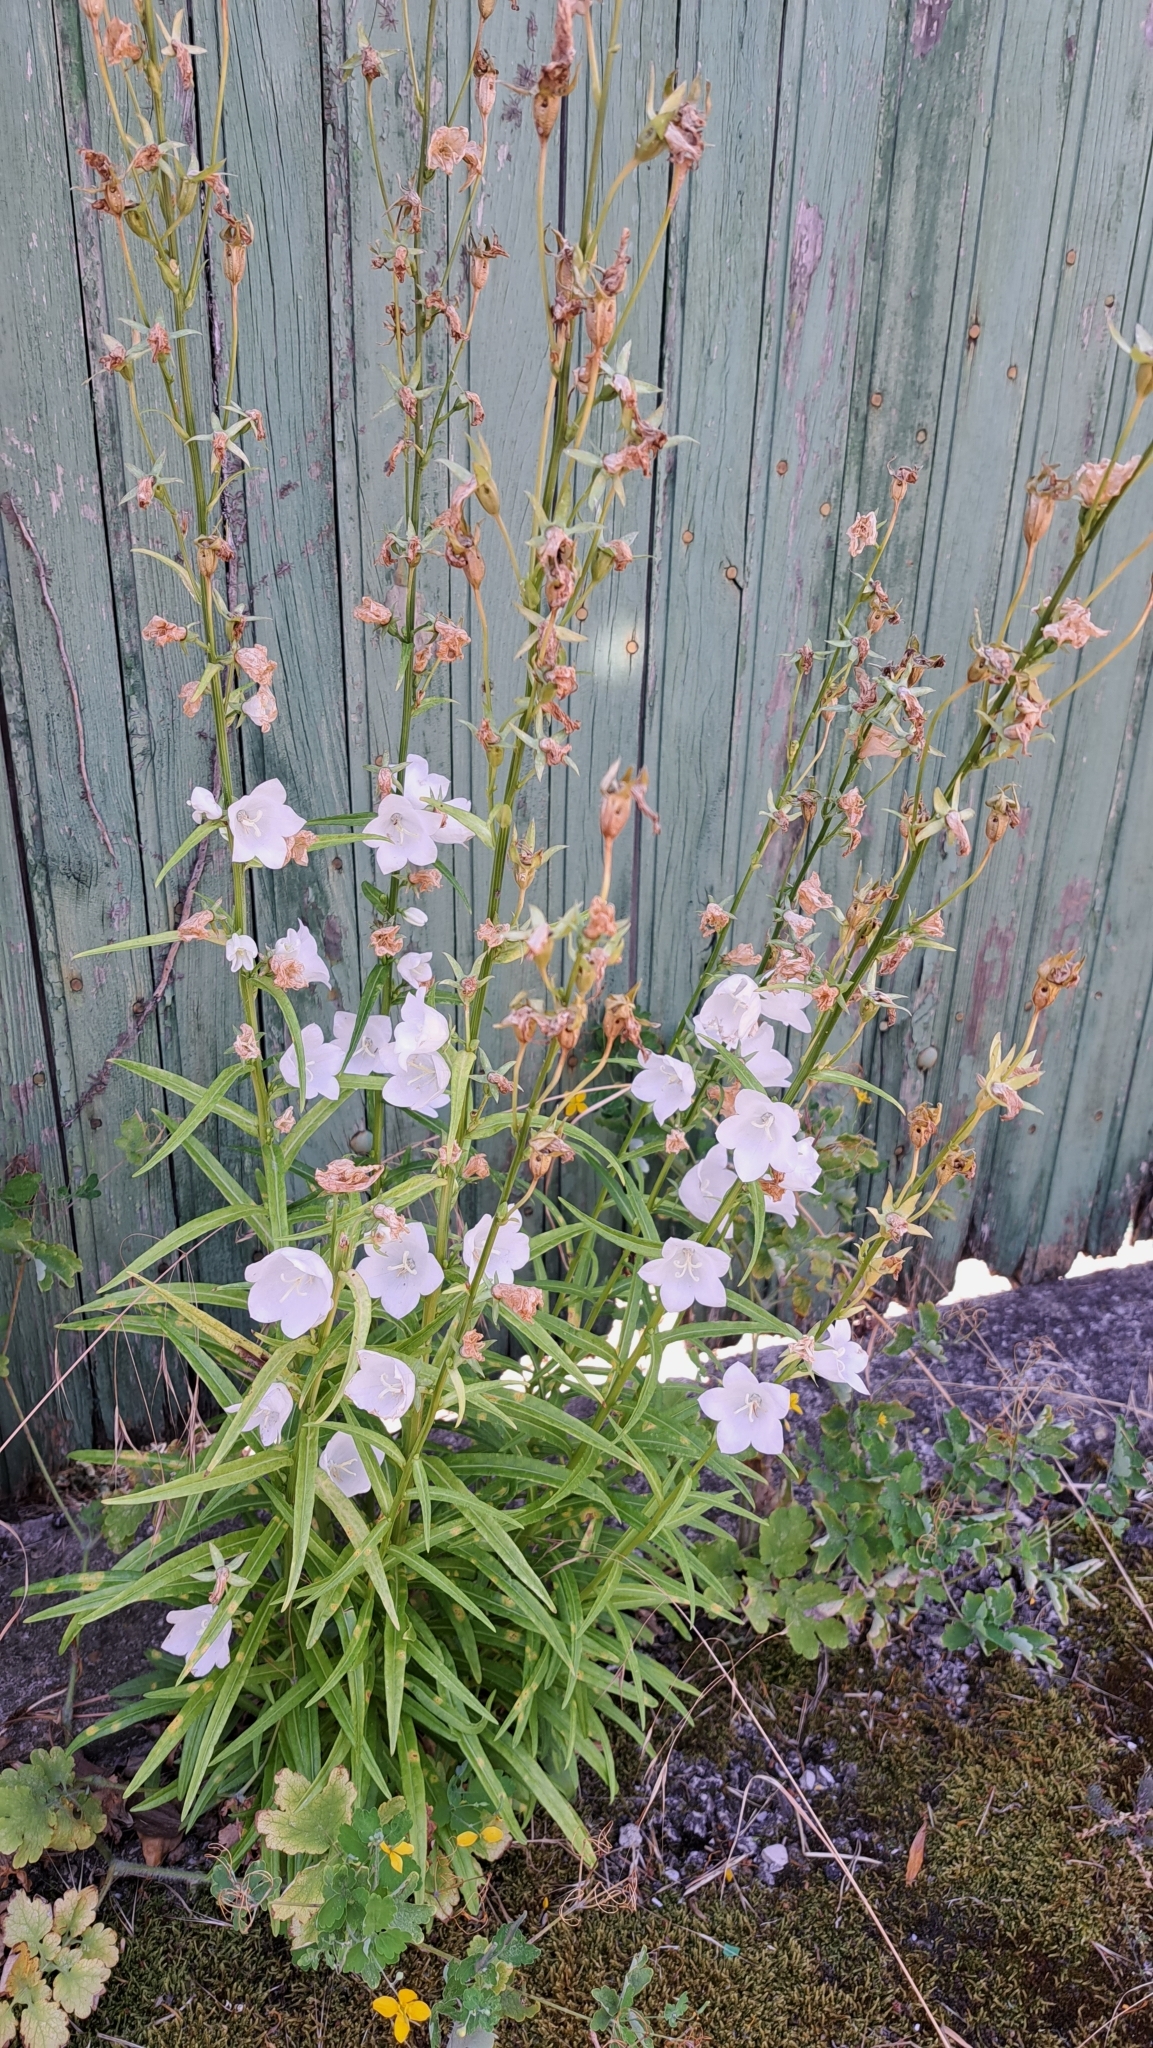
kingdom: Plantae
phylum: Tracheophyta
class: Magnoliopsida
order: Asterales
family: Campanulaceae
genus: Campanula
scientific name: Campanula persicifolia
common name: Peach-leaved bellflower
